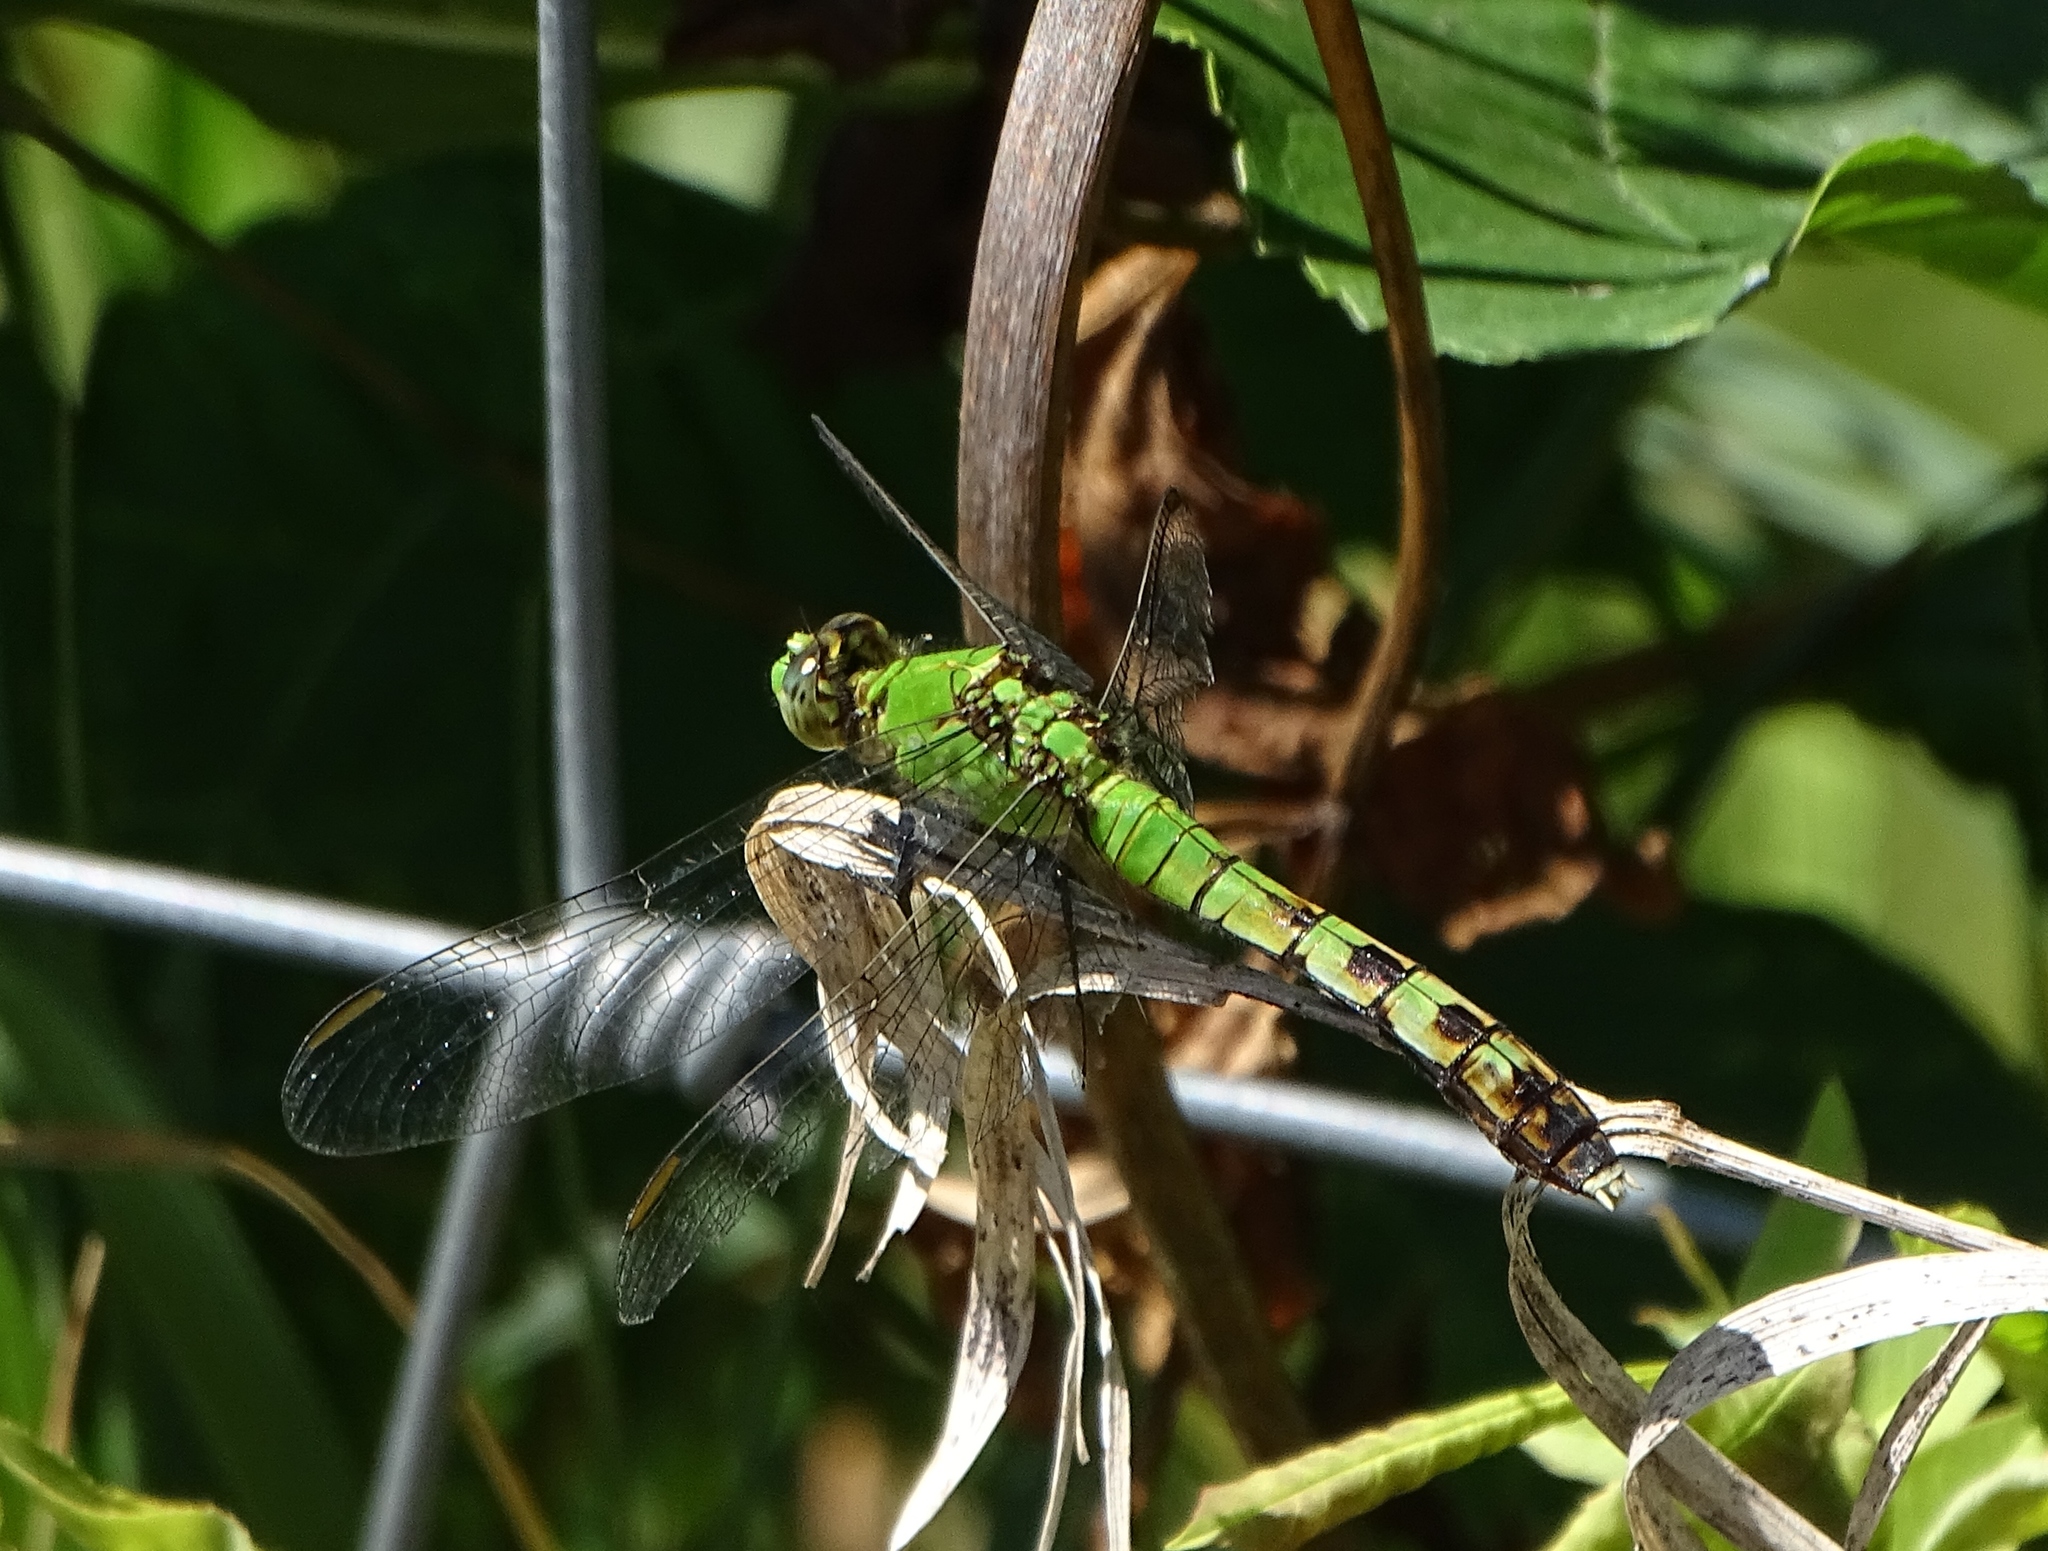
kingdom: Animalia
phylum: Arthropoda
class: Insecta
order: Odonata
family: Libellulidae
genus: Erythemis
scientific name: Erythemis simplicicollis
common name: Eastern pondhawk
